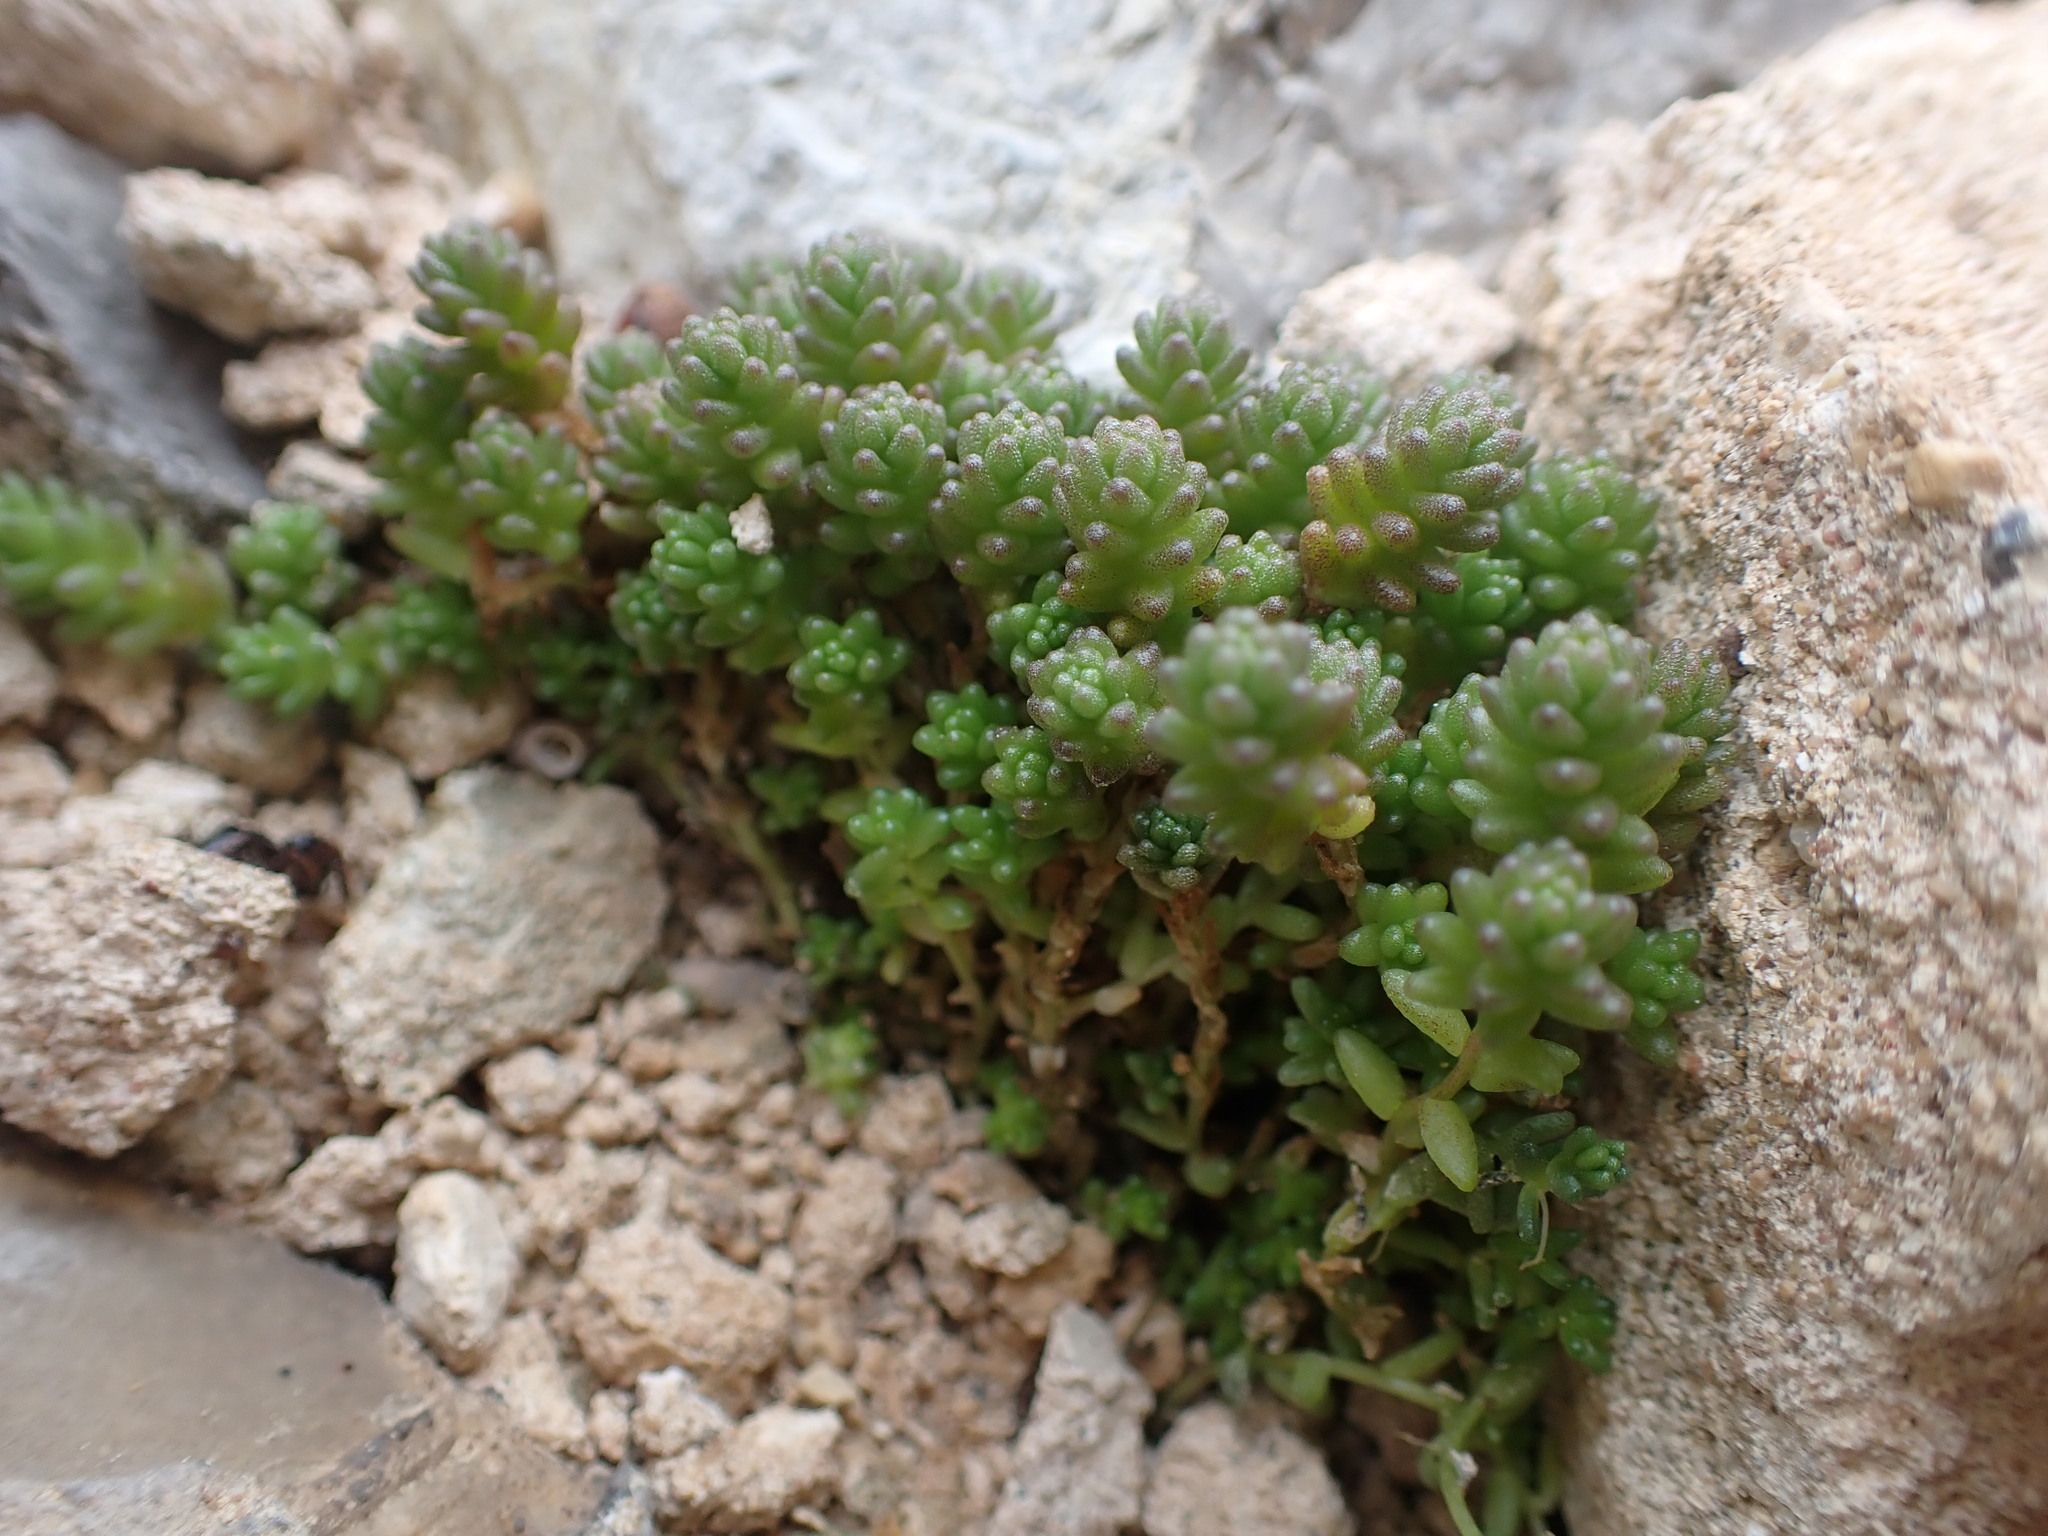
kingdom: Plantae
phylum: Tracheophyta
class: Magnoliopsida
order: Saxifragales
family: Crassulaceae
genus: Sedum
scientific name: Sedum acre
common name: Biting stonecrop
